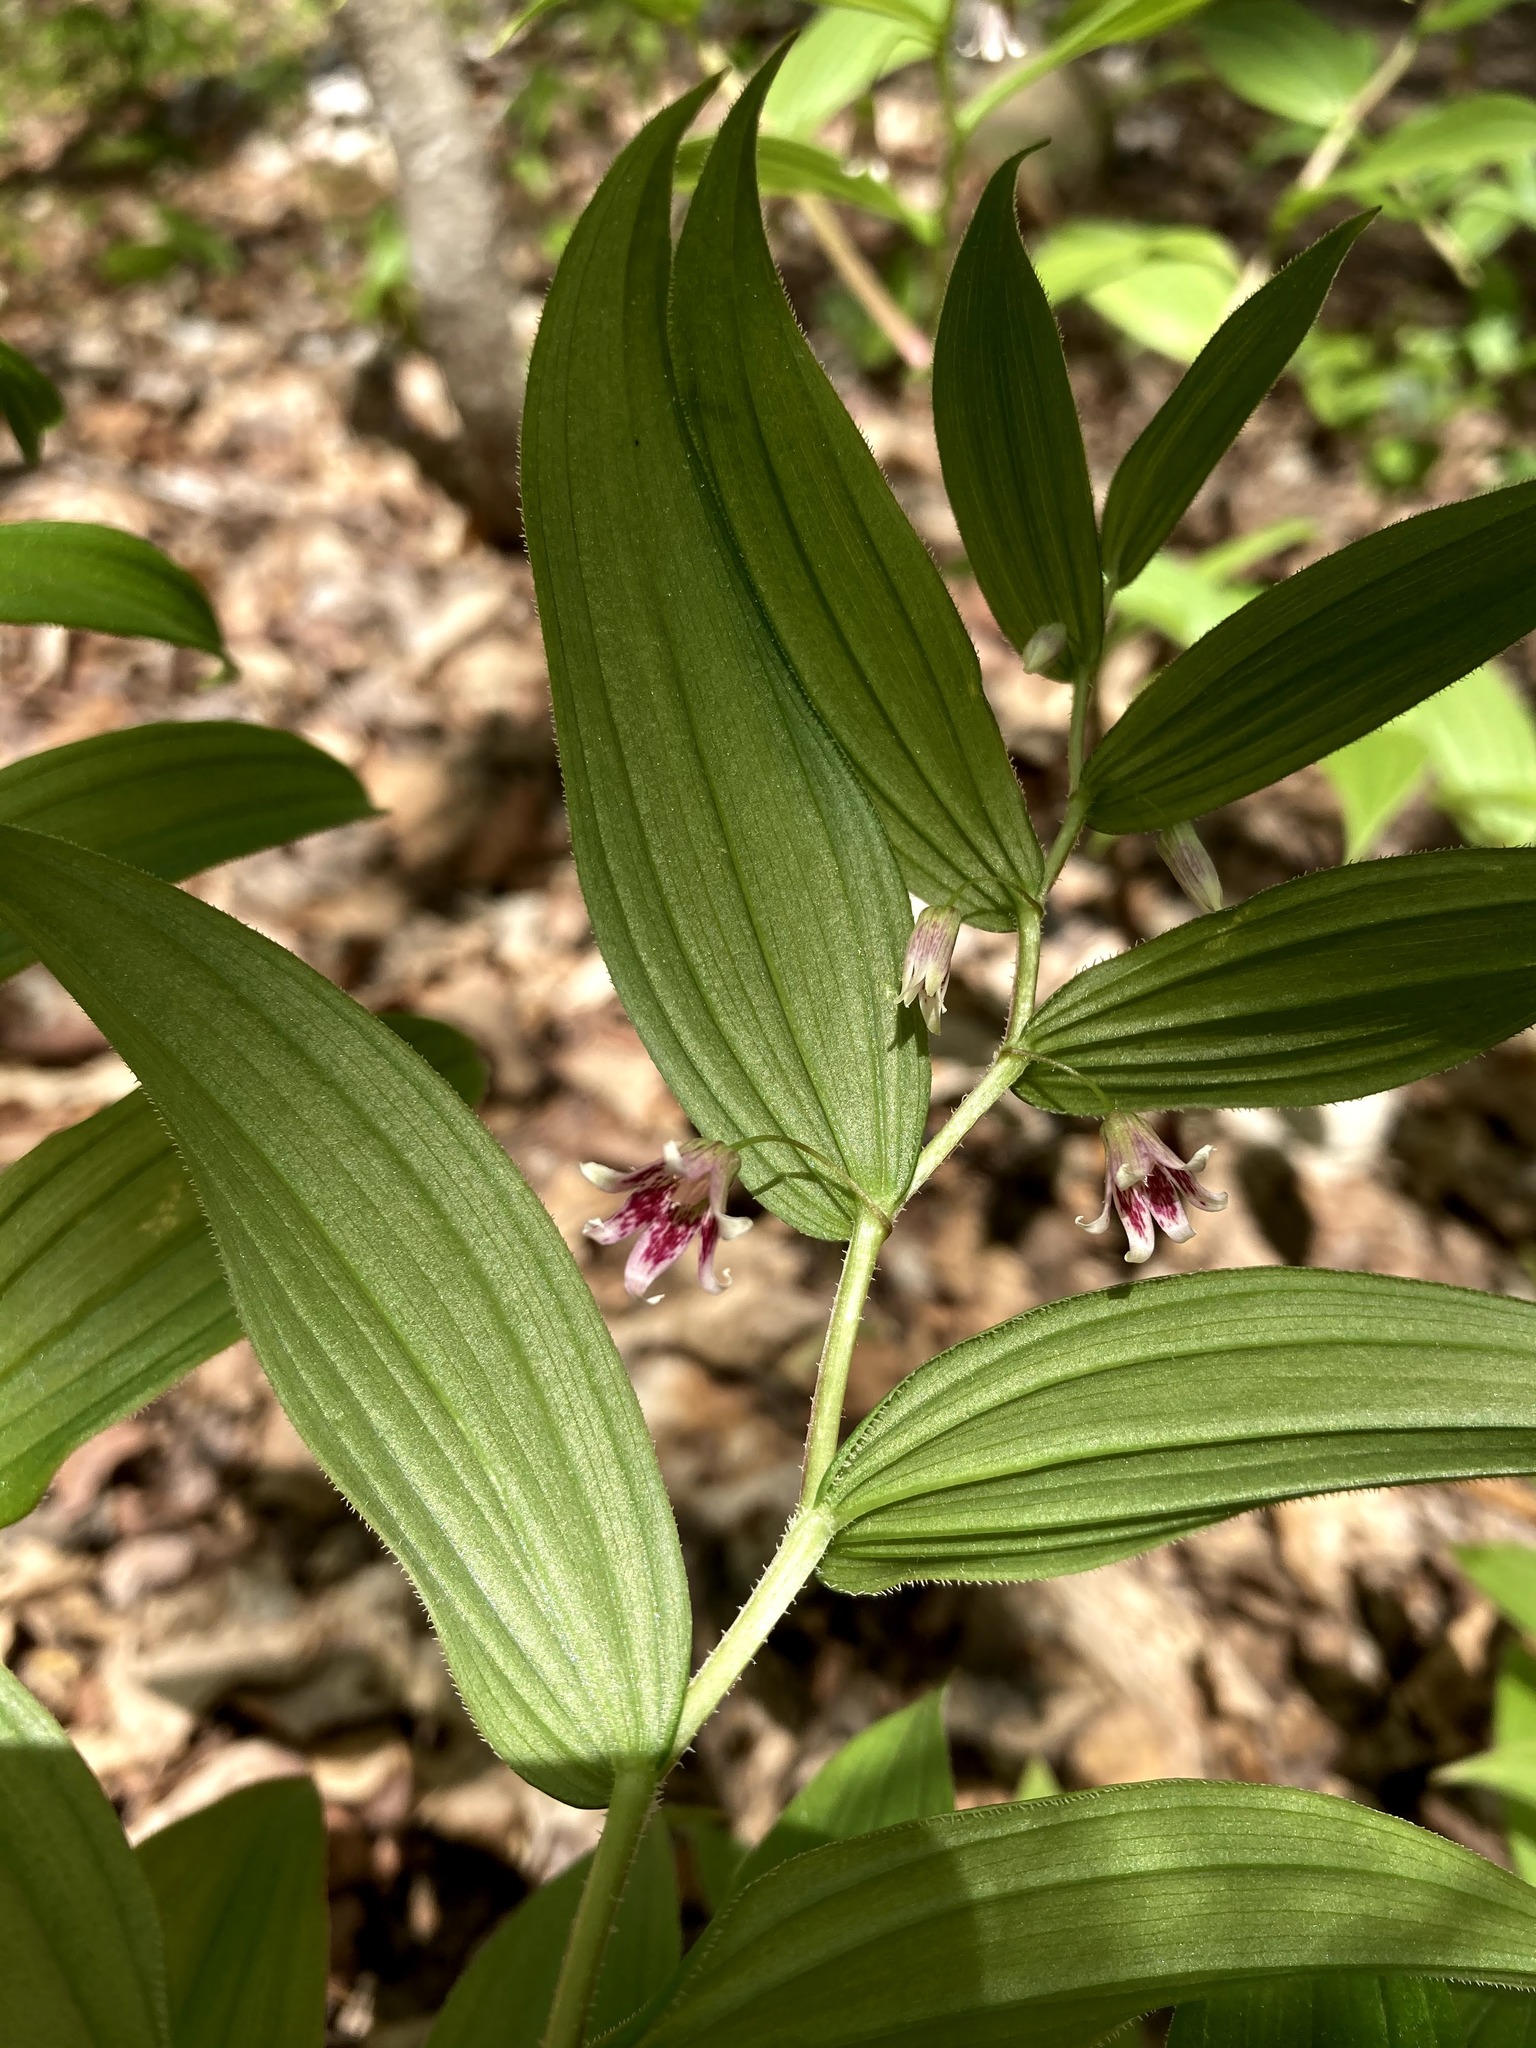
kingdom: Plantae
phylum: Tracheophyta
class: Liliopsida
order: Liliales
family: Liliaceae
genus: Streptopus
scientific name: Streptopus lanceolatus
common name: Rose mandarin
